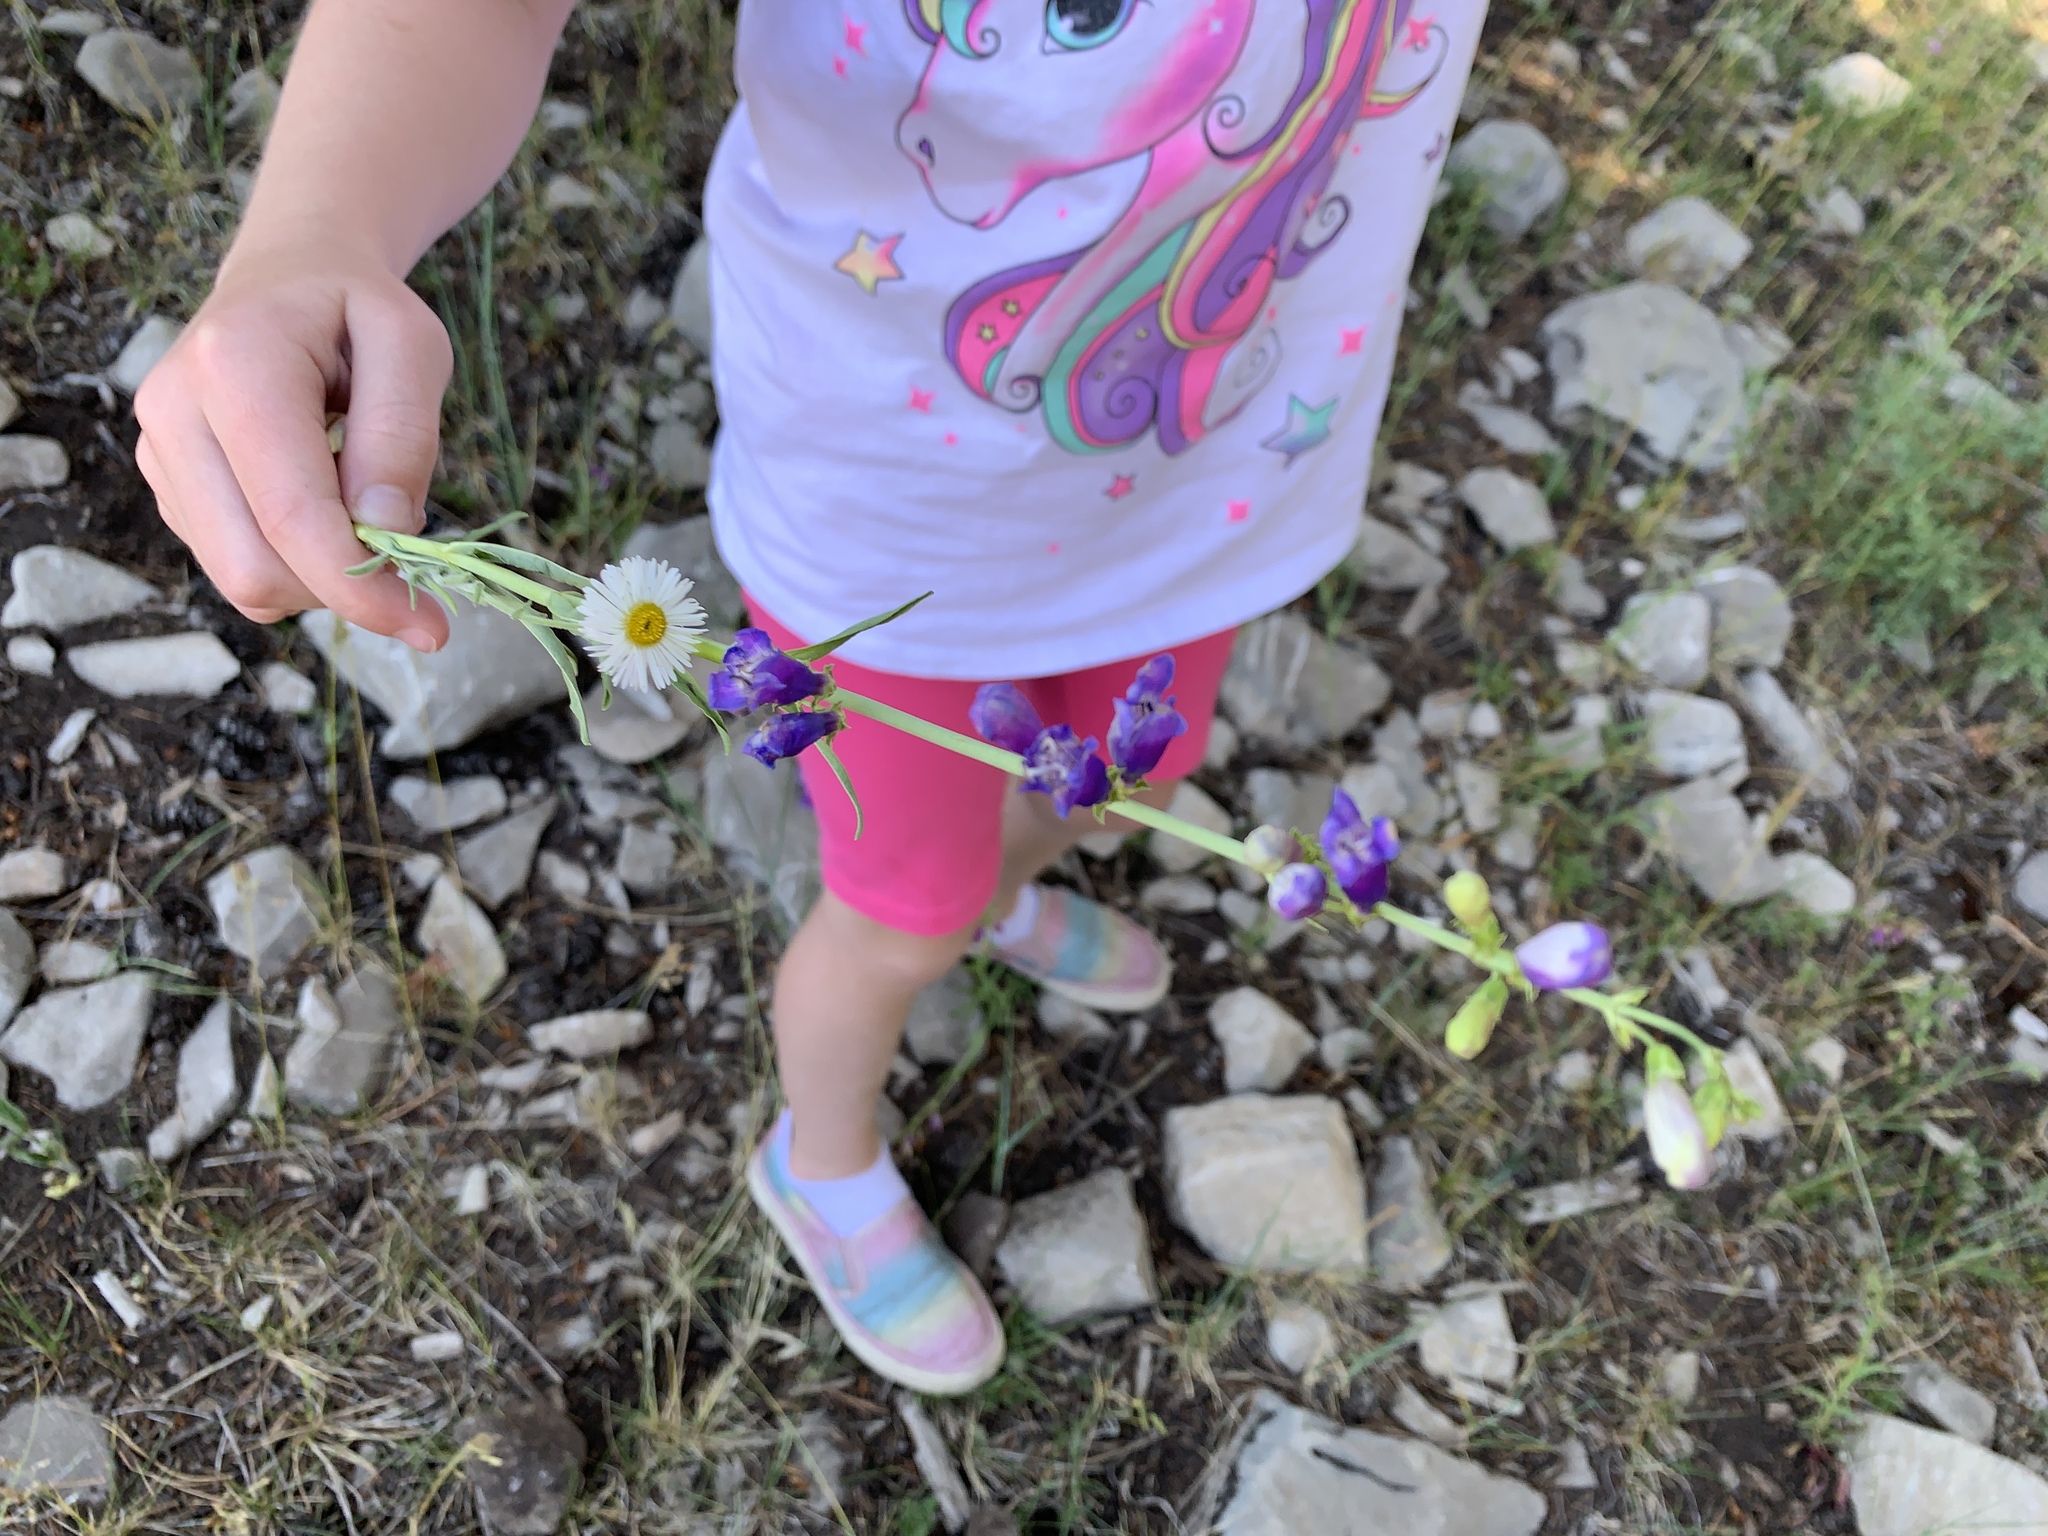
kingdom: Plantae
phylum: Tracheophyta
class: Magnoliopsida
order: Lamiales
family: Plantaginaceae
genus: Penstemon
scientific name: Penstemon neomexicanus
